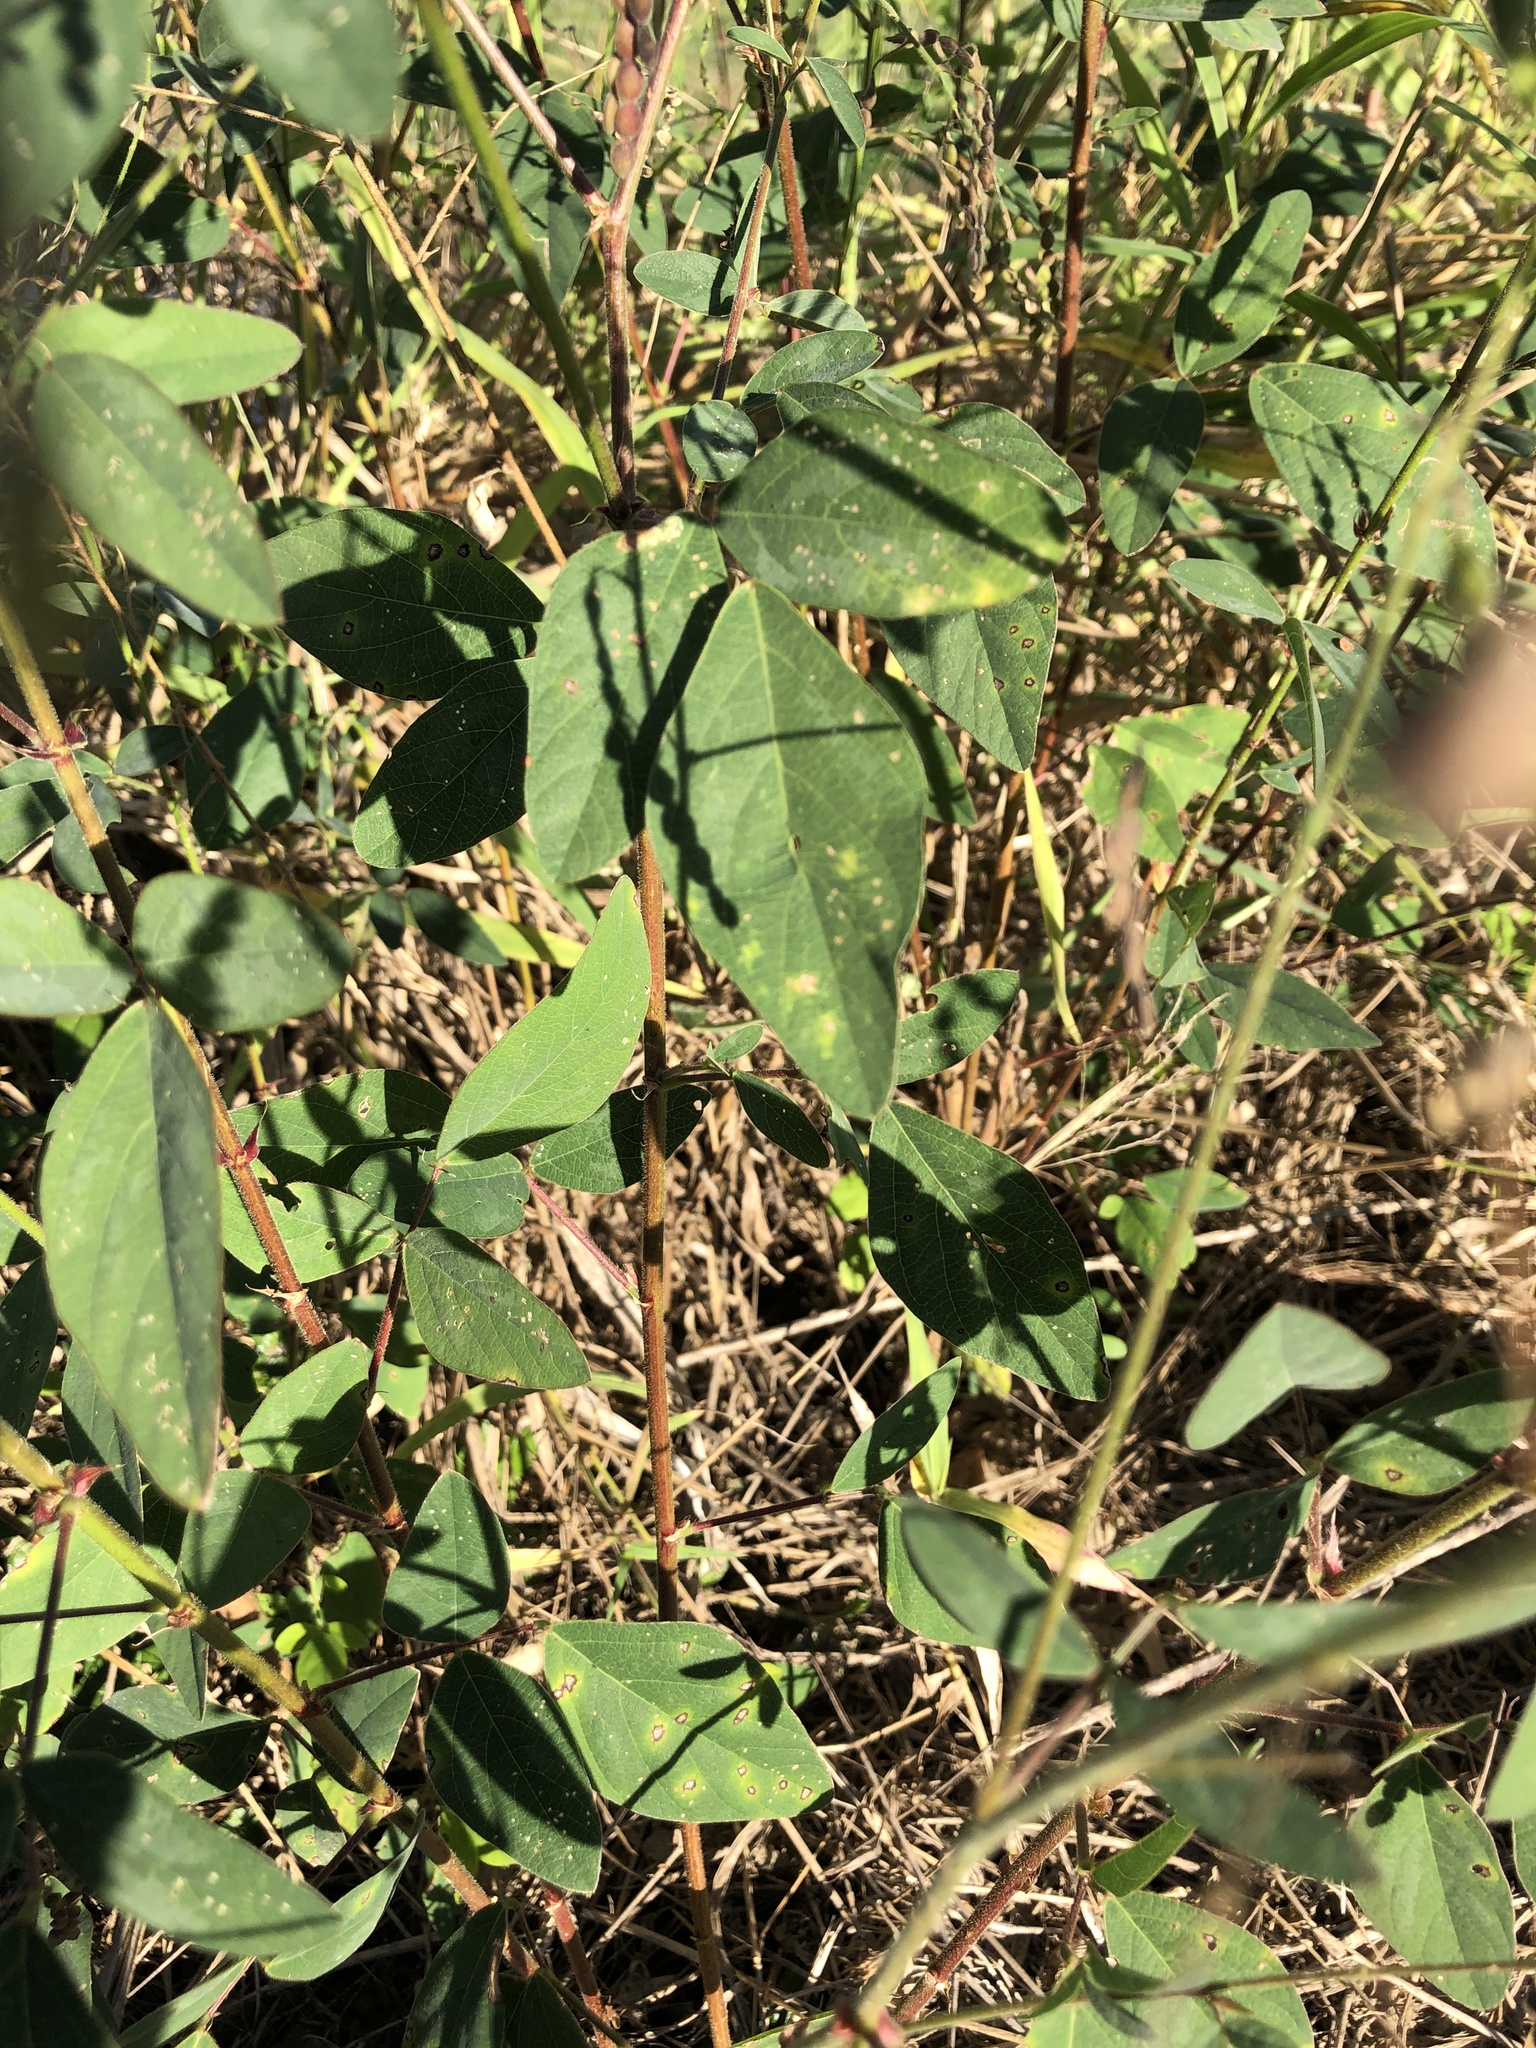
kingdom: Plantae
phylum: Tracheophyta
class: Magnoliopsida
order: Fabales
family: Fabaceae
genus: Desmodium
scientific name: Desmodium tortuosum
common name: Dixie ticktrefoil
